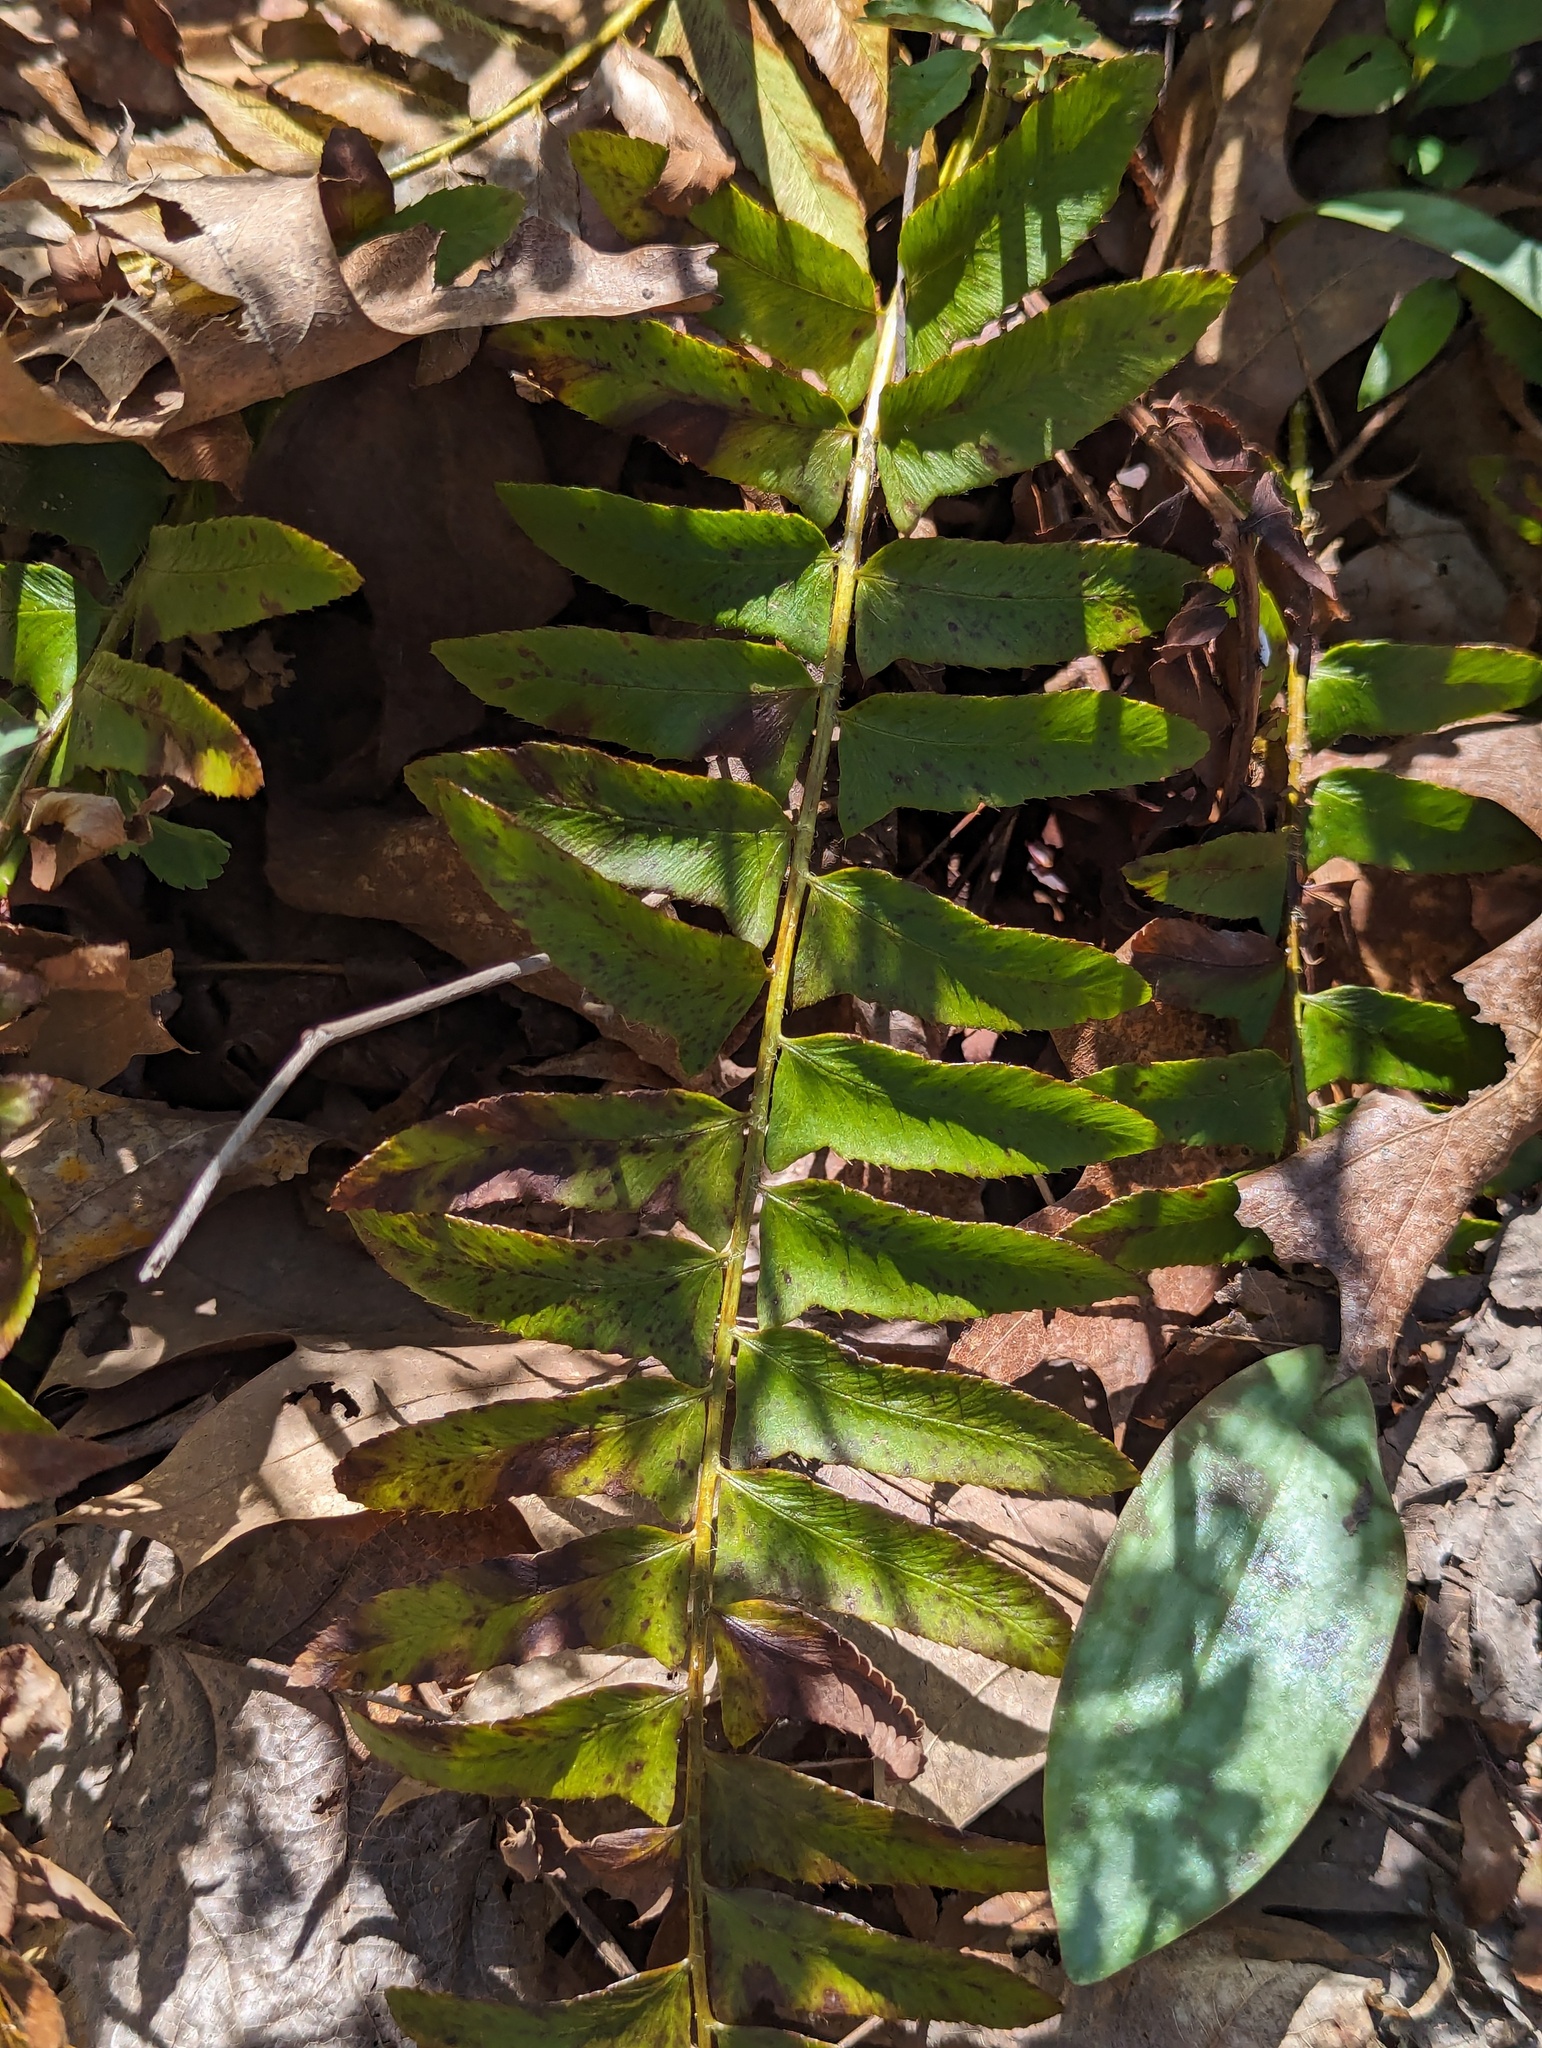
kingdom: Plantae
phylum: Tracheophyta
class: Polypodiopsida
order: Polypodiales
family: Dryopteridaceae
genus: Polystichum
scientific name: Polystichum acrostichoides
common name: Christmas fern
